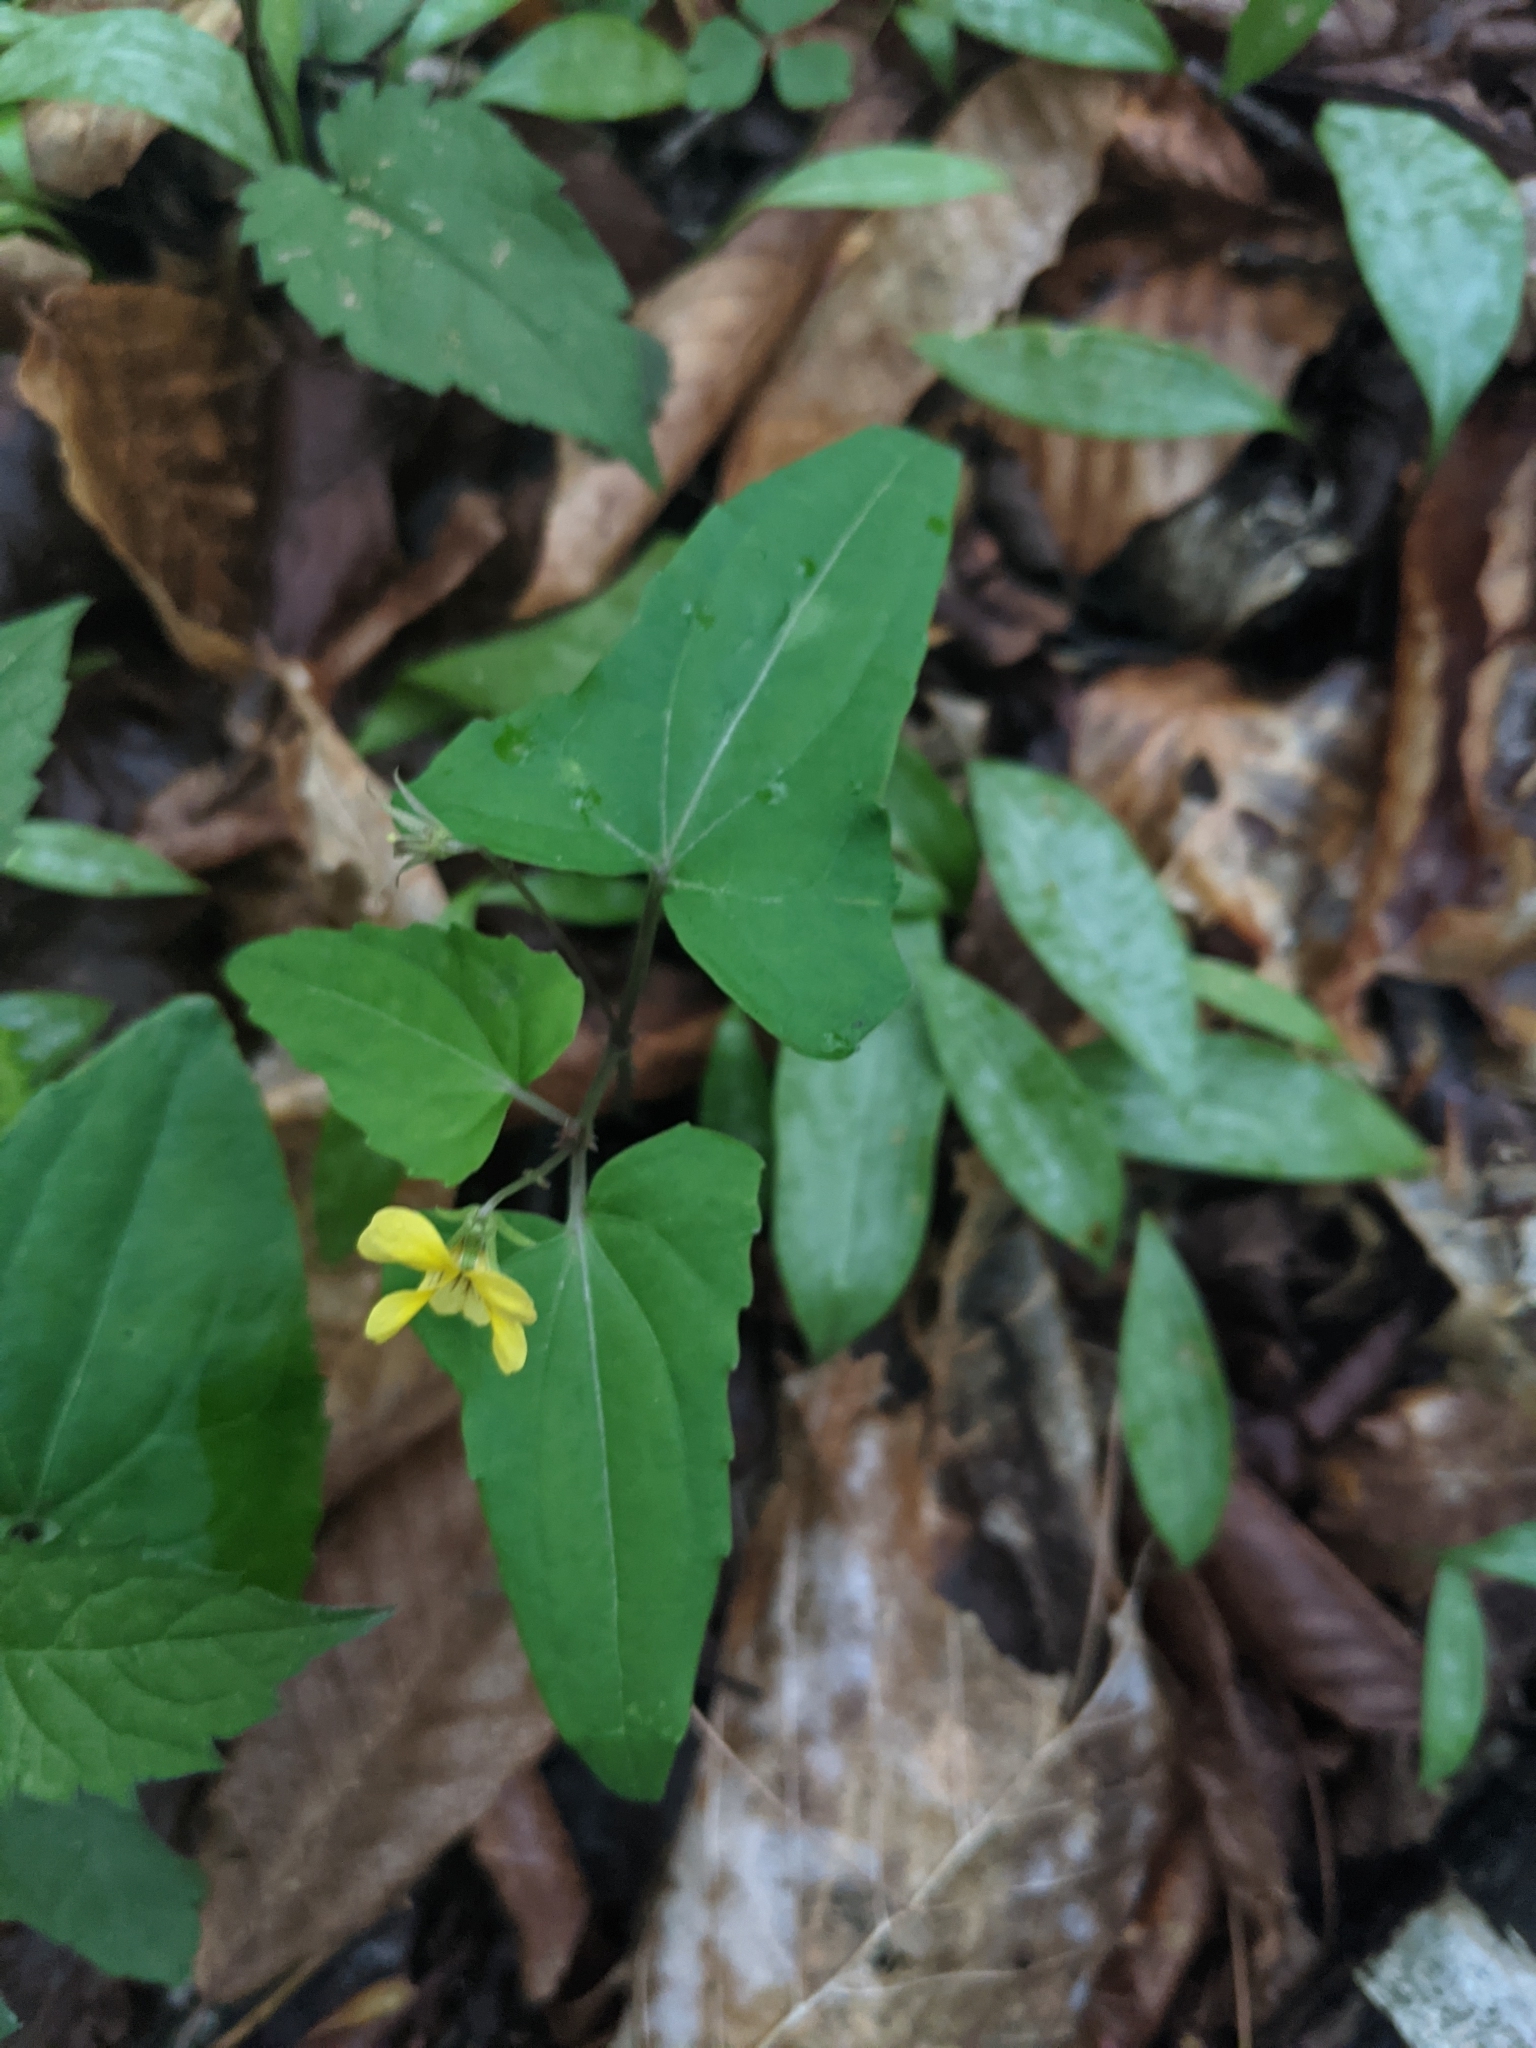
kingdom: Plantae
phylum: Tracheophyta
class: Magnoliopsida
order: Malpighiales
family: Violaceae
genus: Viola
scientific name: Viola hastata
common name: Spear-leaf violet
